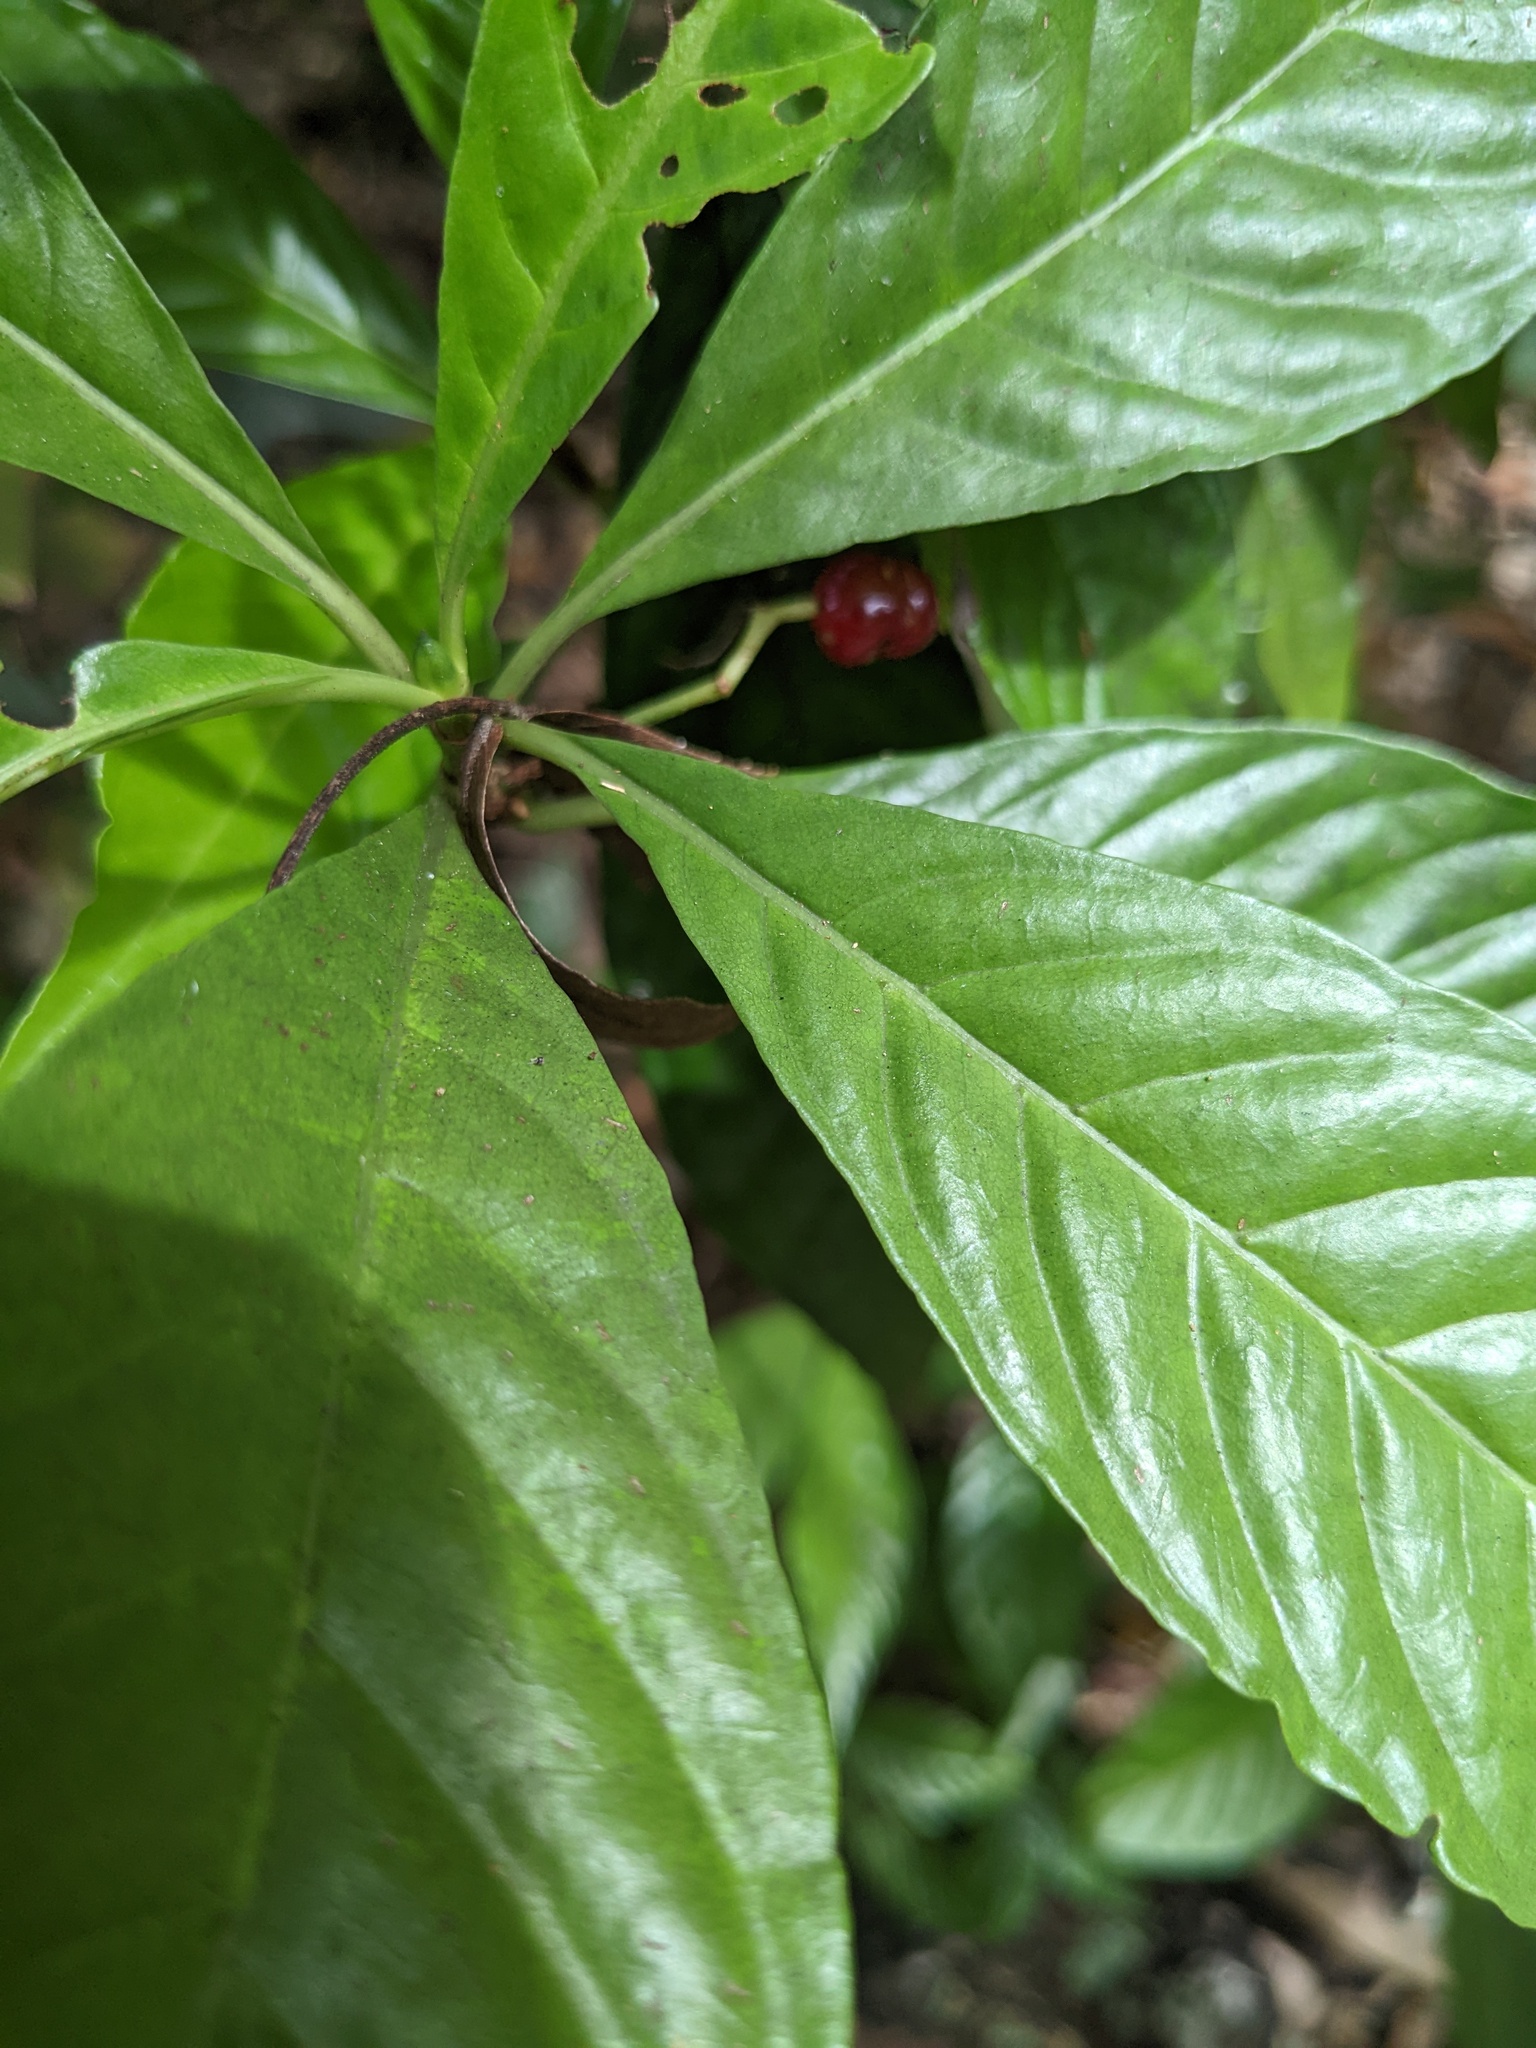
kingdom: Plantae
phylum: Tracheophyta
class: Magnoliopsida
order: Gentianales
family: Rubiaceae
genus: Psychotria
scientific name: Psychotria nervosa
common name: Bastard cankerberry
